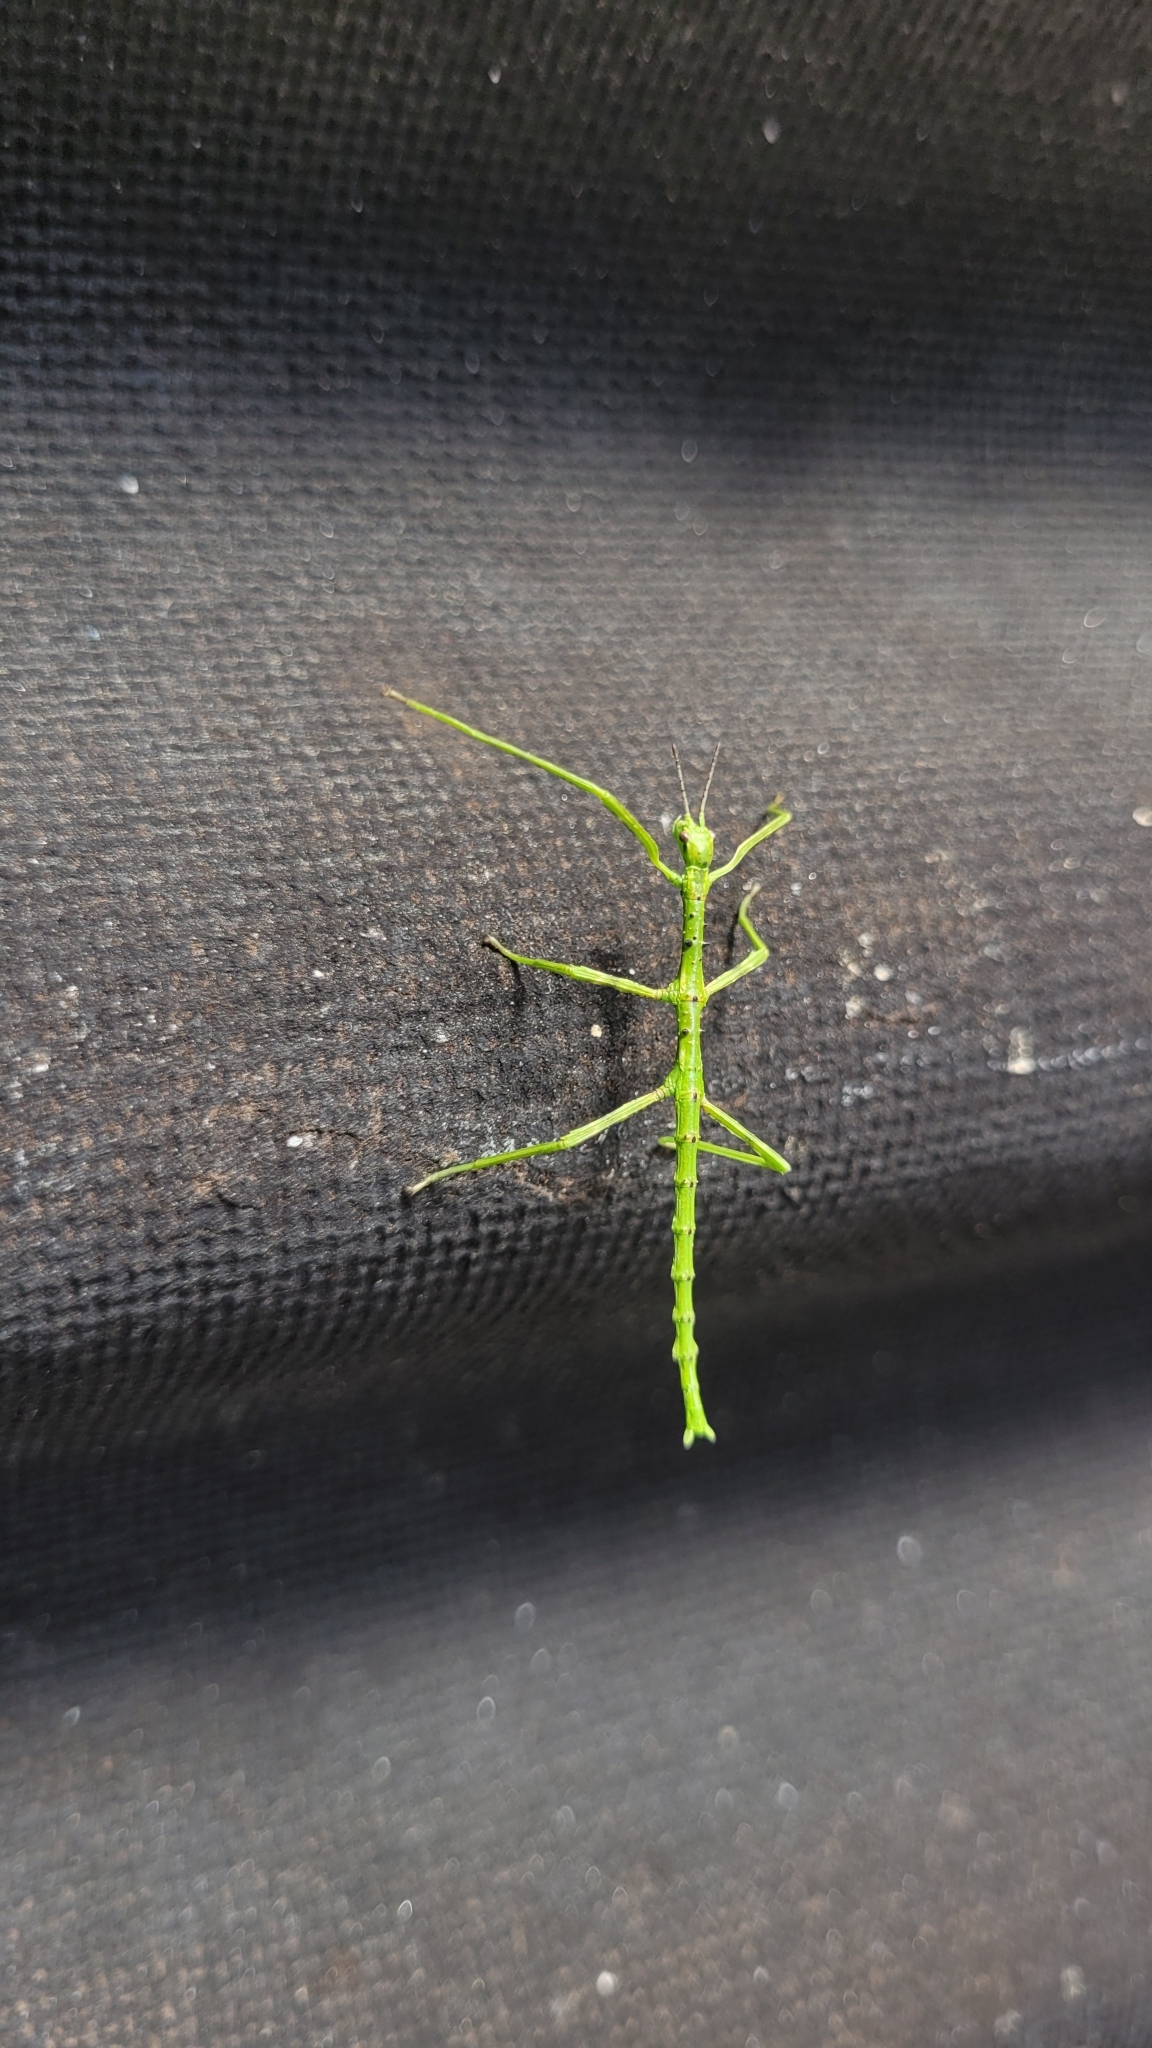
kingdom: Animalia
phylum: Arthropoda
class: Insecta
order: Phasmida
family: Phasmatidae
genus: Acanthoxyla
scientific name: Acanthoxyla prasina
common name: Black-spined stick insect
